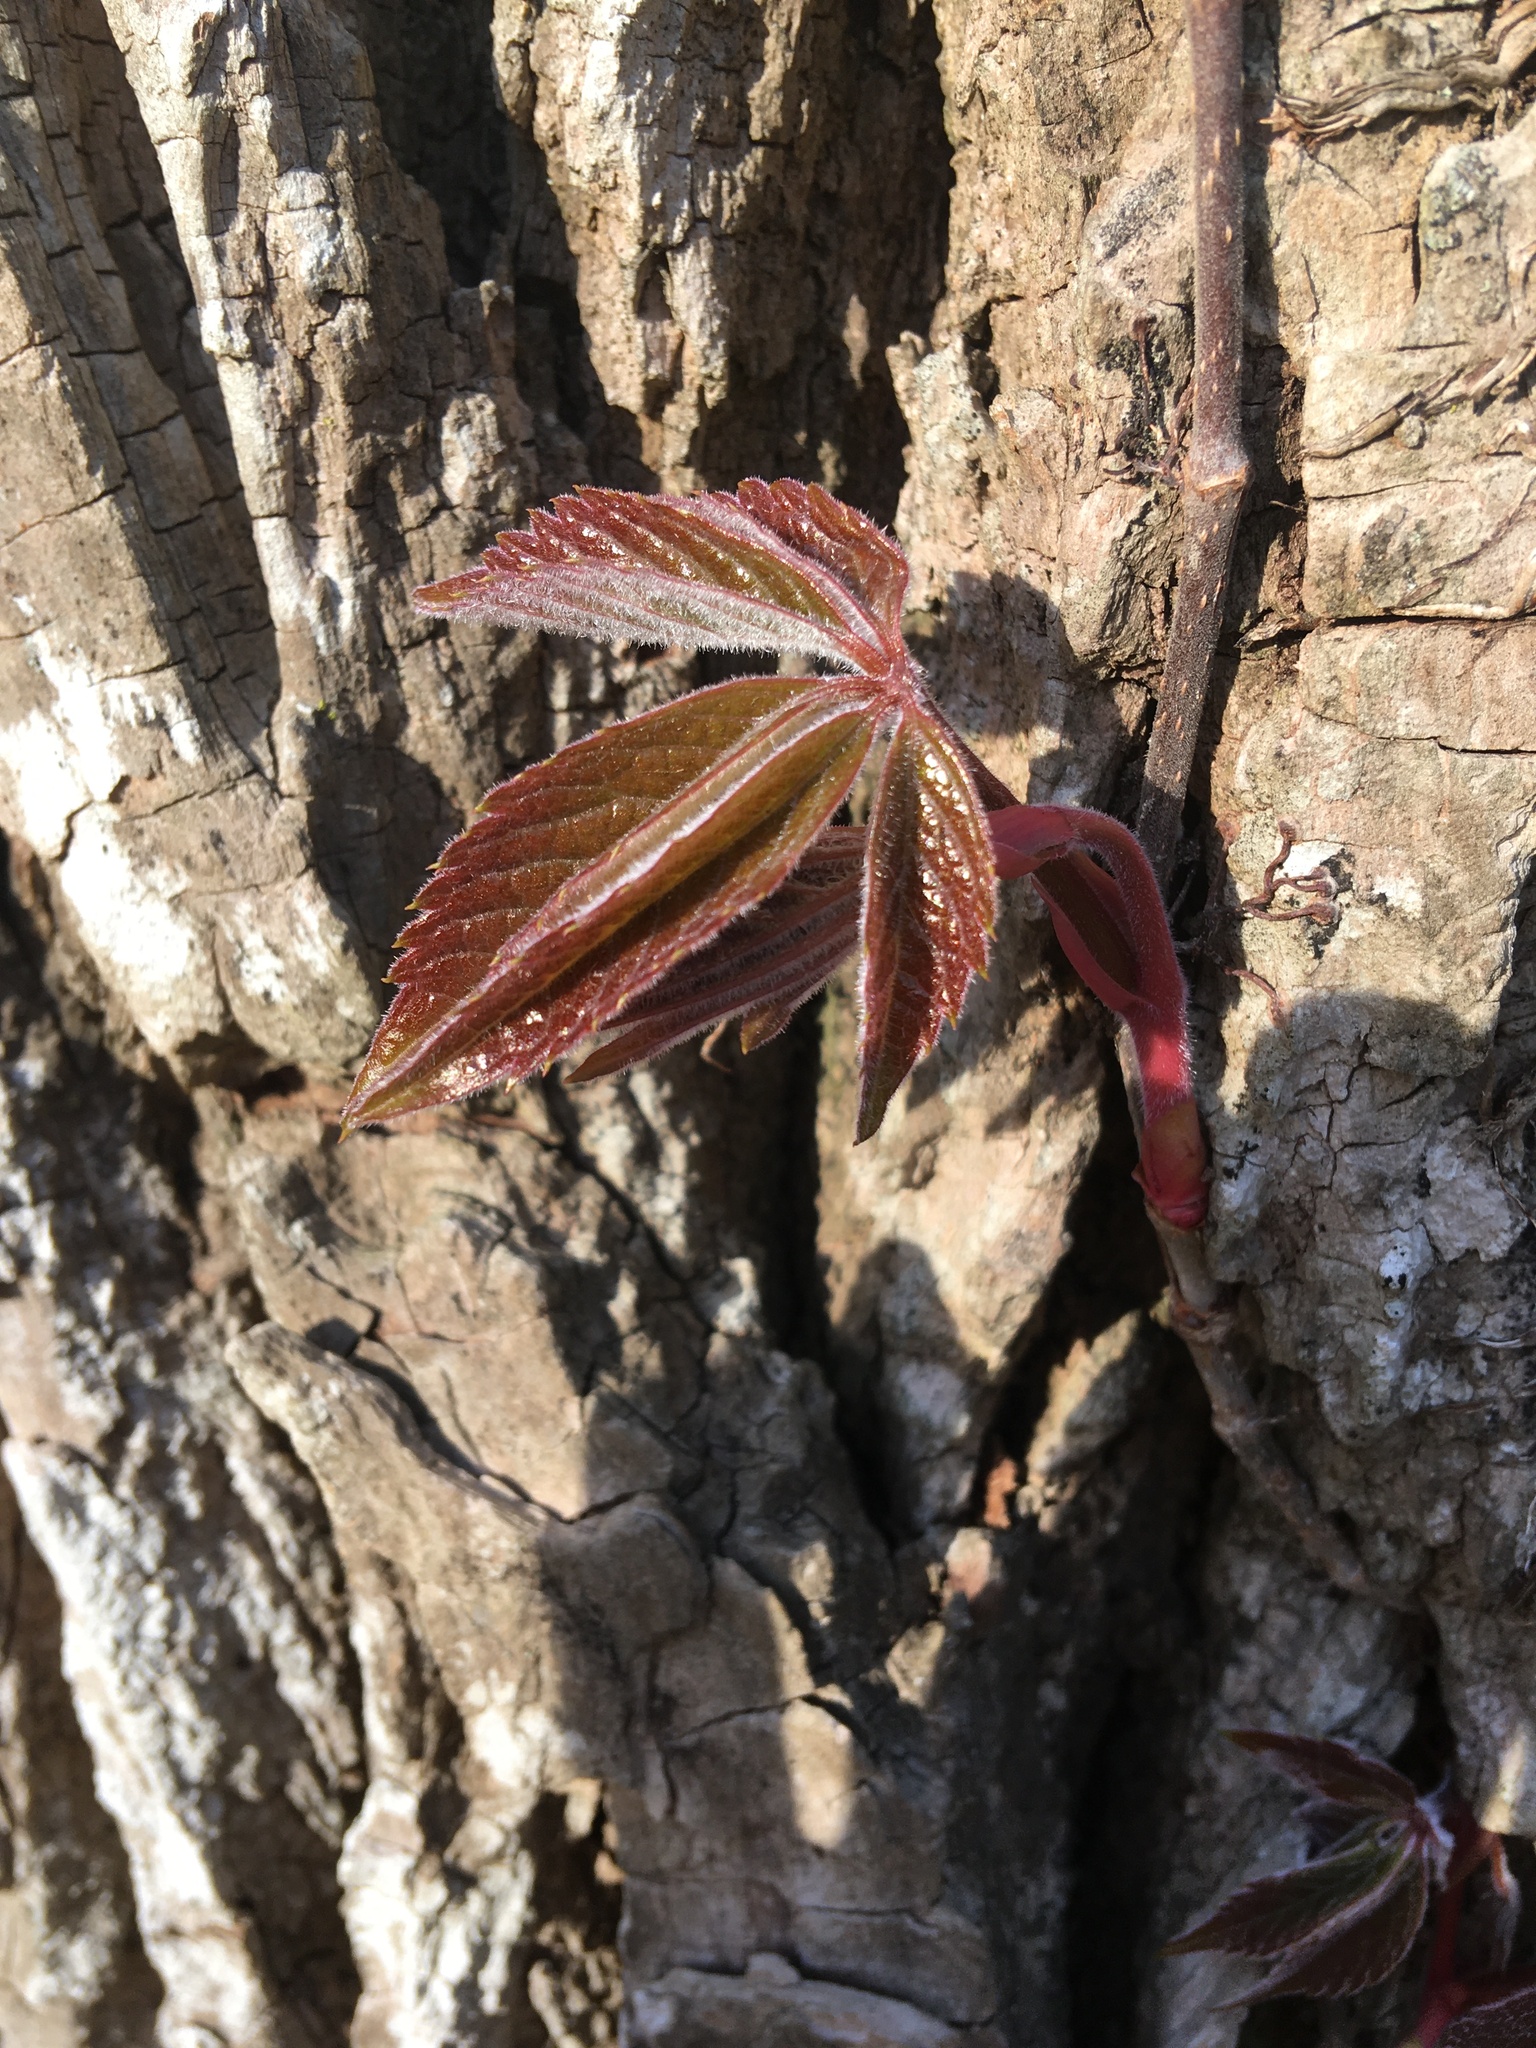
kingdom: Plantae
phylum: Tracheophyta
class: Magnoliopsida
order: Vitales
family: Vitaceae
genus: Parthenocissus
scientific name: Parthenocissus quinquefolia
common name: Virginia-creeper
